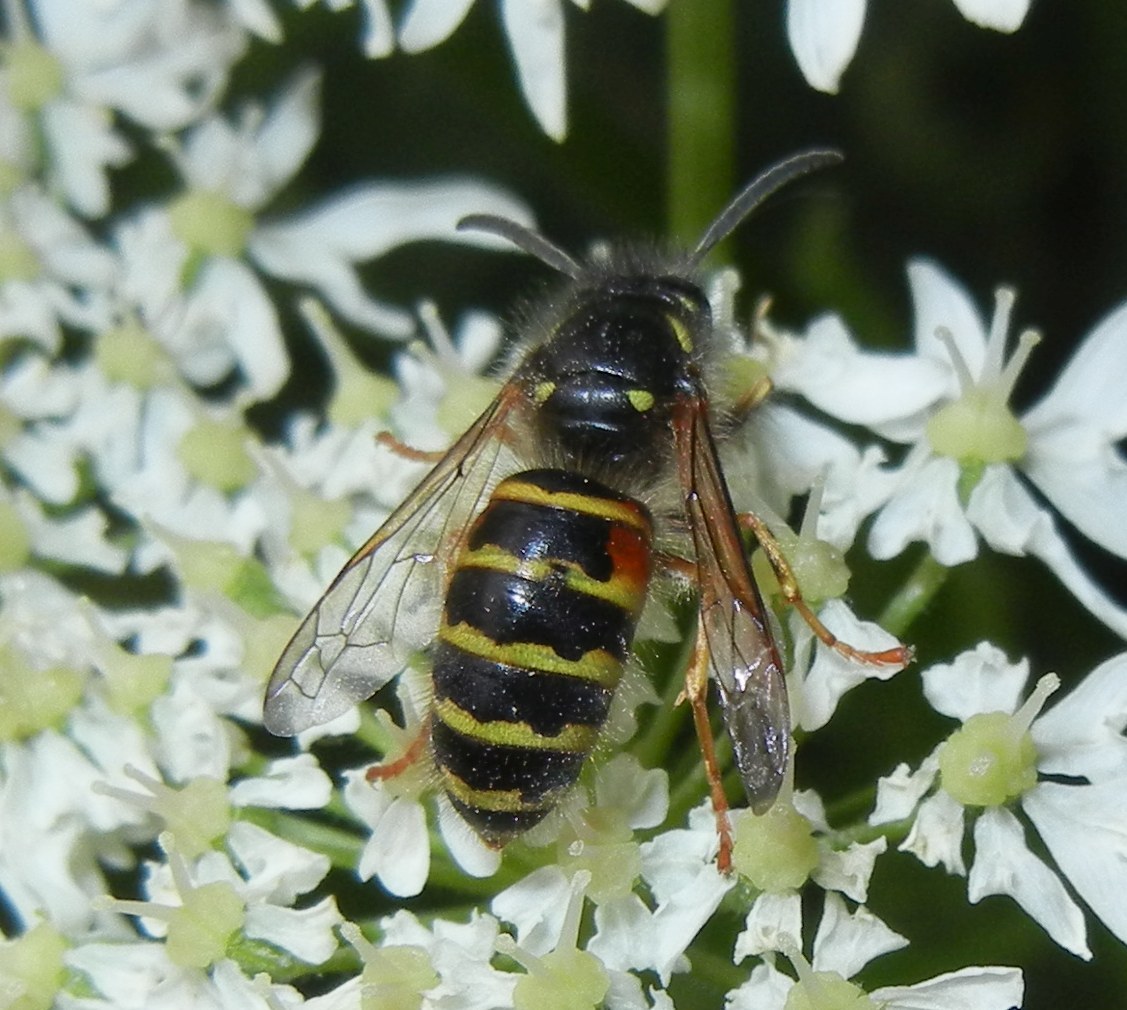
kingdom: Animalia
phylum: Arthropoda
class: Insecta
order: Hymenoptera
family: Vespidae
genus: Dolichovespula
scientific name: Dolichovespula norwegica
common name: Norwegian wasp
